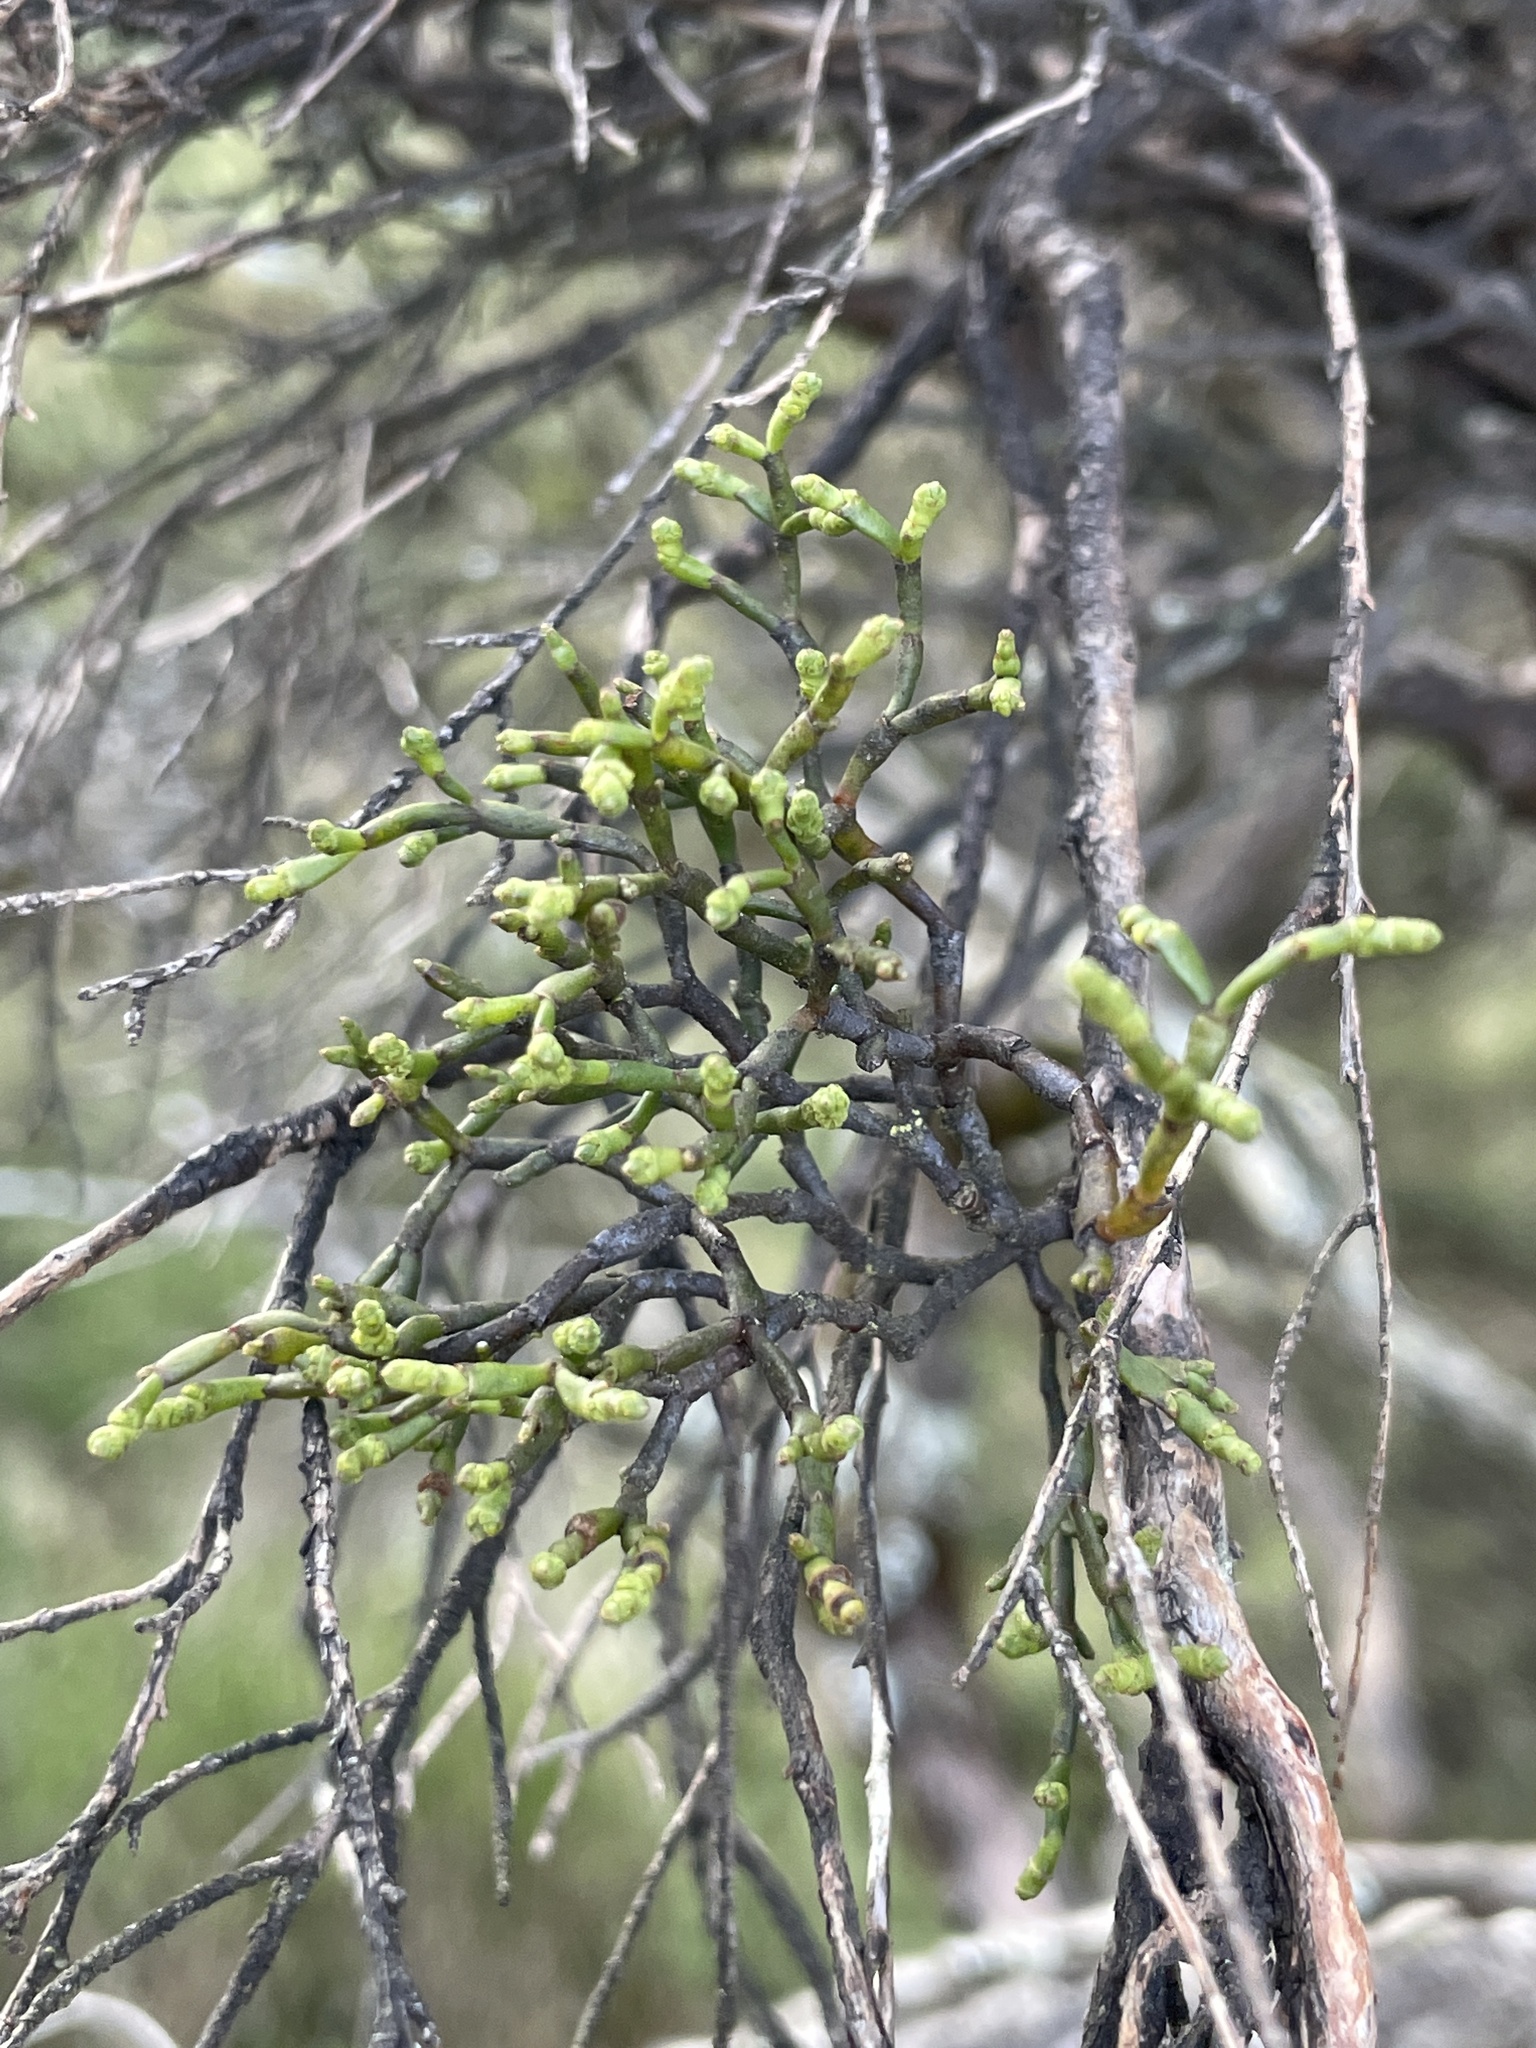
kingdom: Plantae
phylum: Tracheophyta
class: Magnoliopsida
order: Santalales
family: Viscaceae
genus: Korthalsella
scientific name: Korthalsella salicornioides
